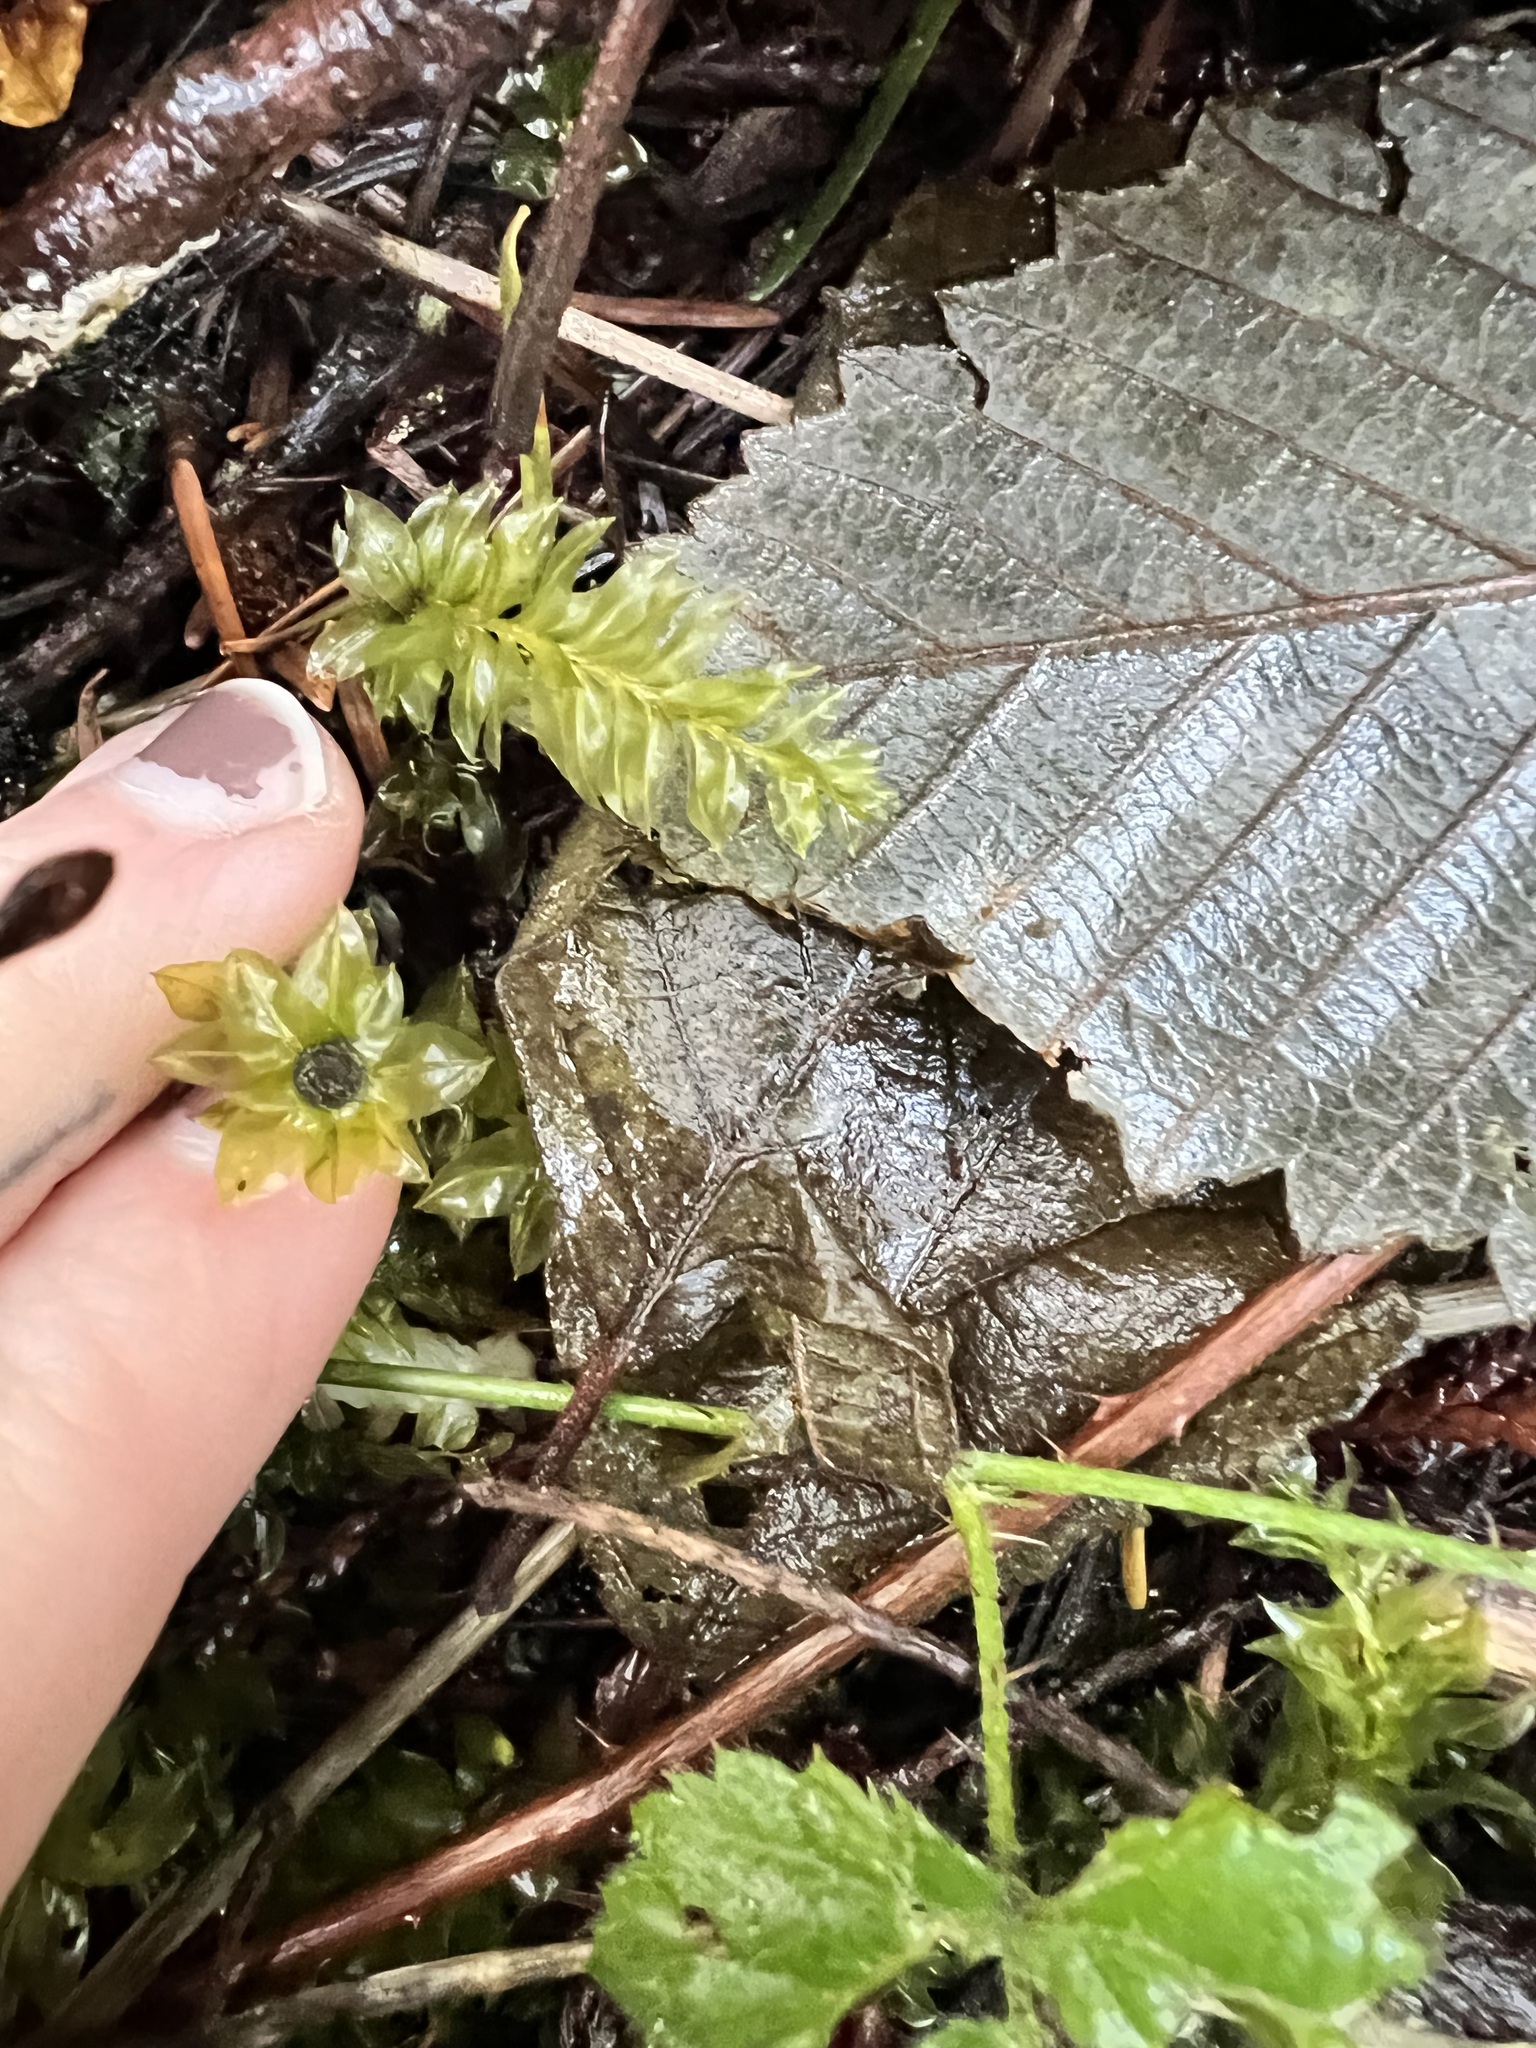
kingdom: Plantae
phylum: Bryophyta
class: Bryopsida
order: Bryales
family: Mniaceae
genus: Plagiomnium
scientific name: Plagiomnium insigne
